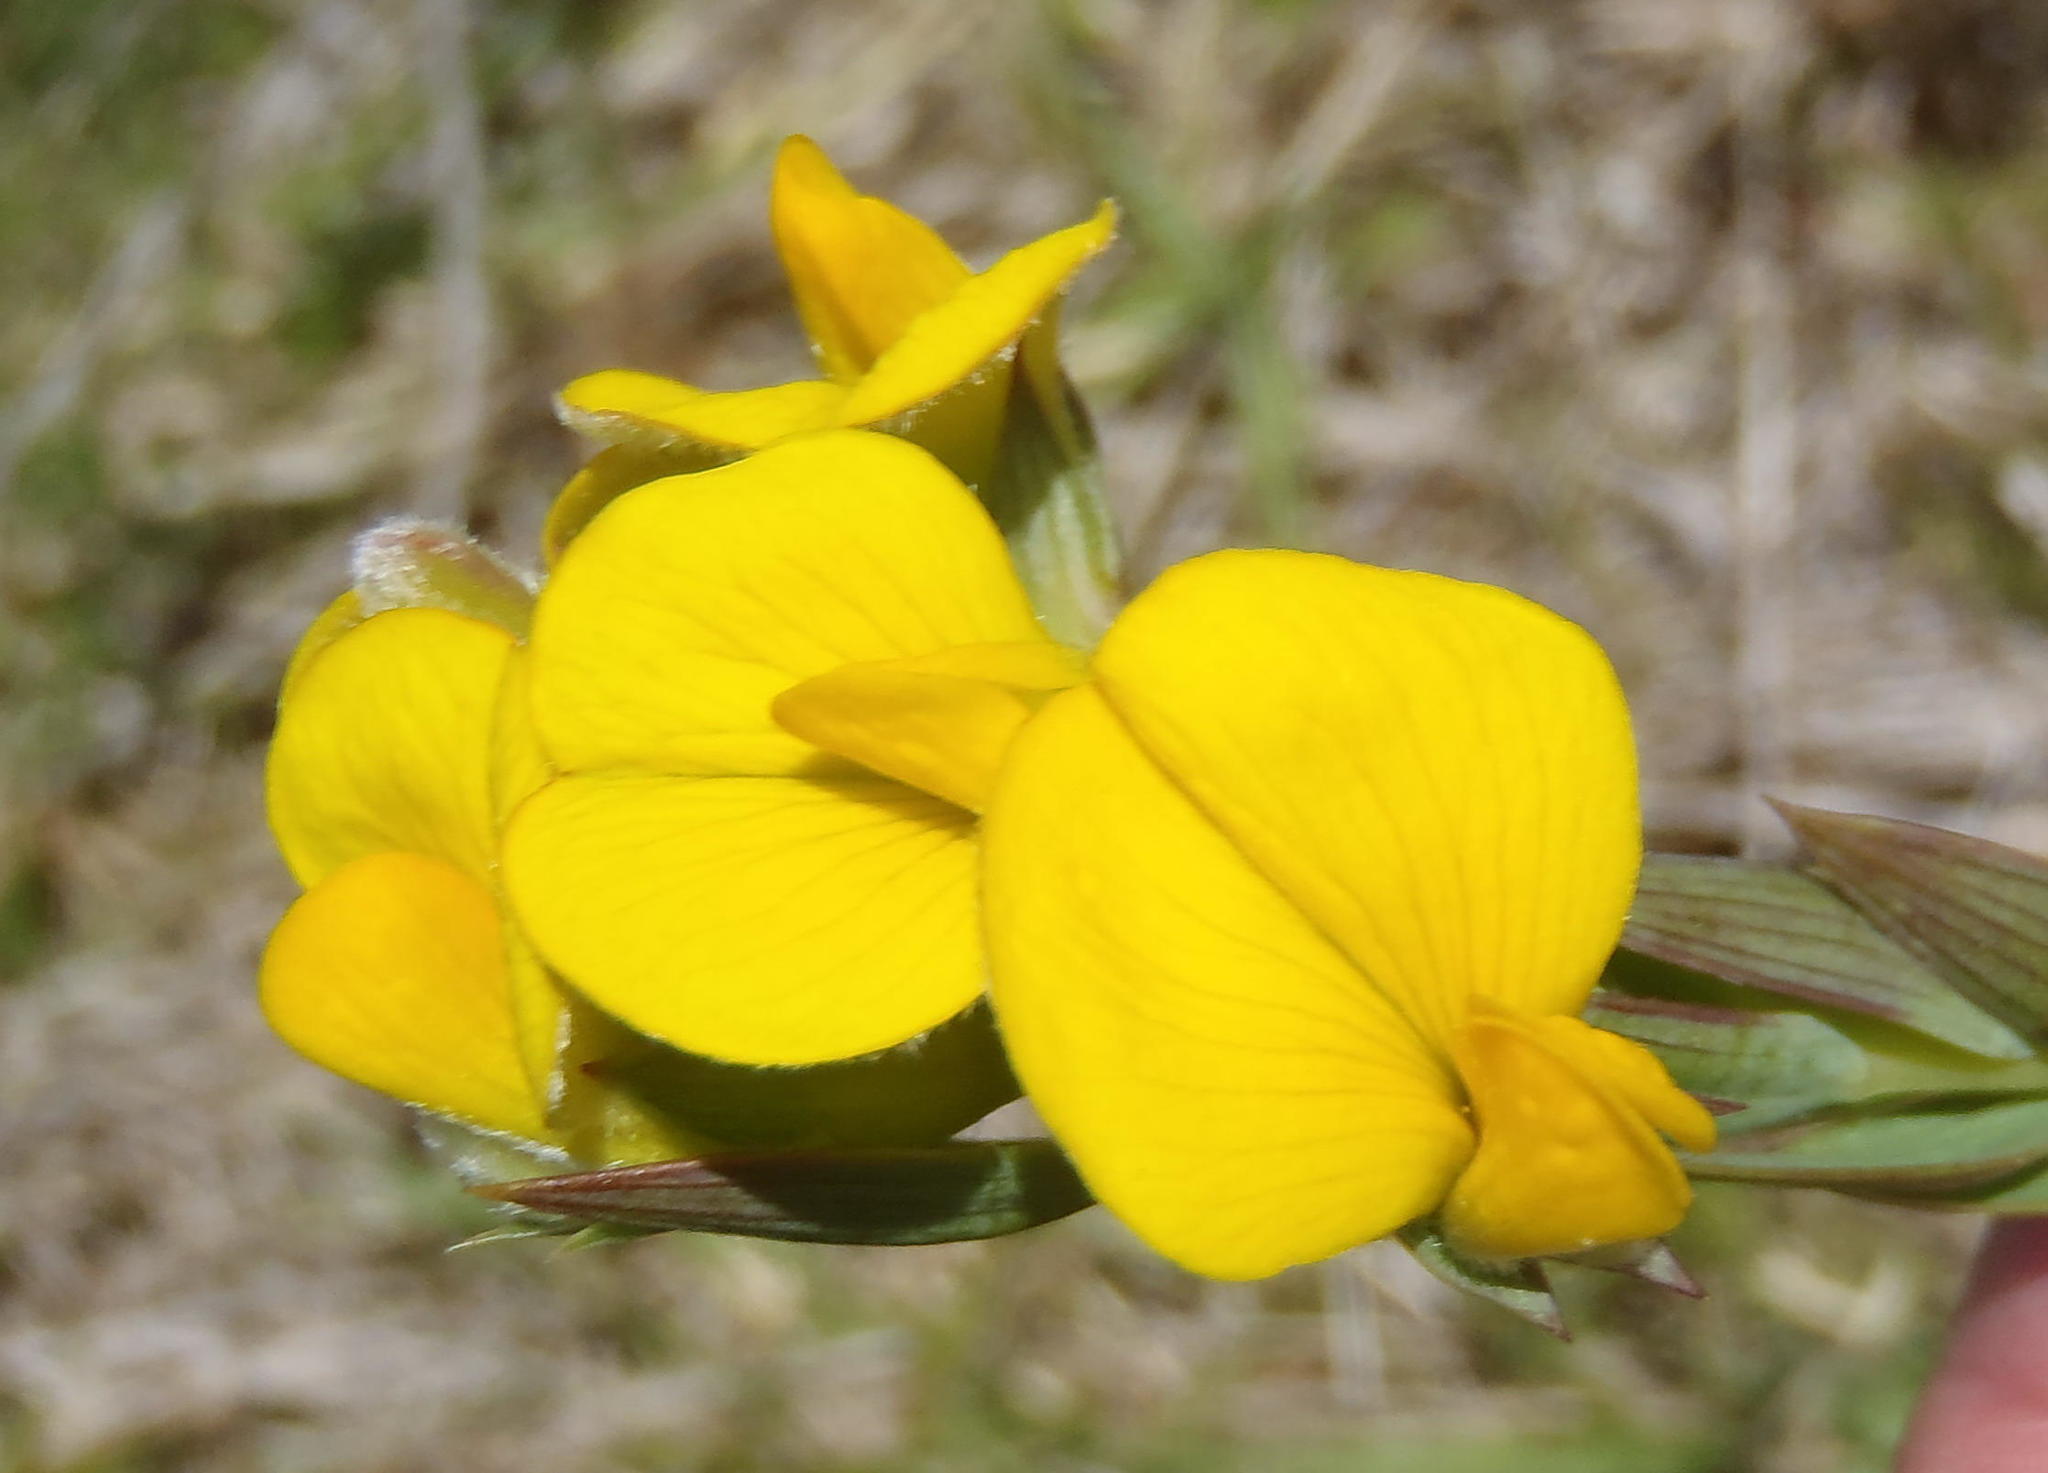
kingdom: Plantae
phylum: Tracheophyta
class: Magnoliopsida
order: Fabales
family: Fabaceae
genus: Aspalathus
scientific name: Aspalathus angustifolia
